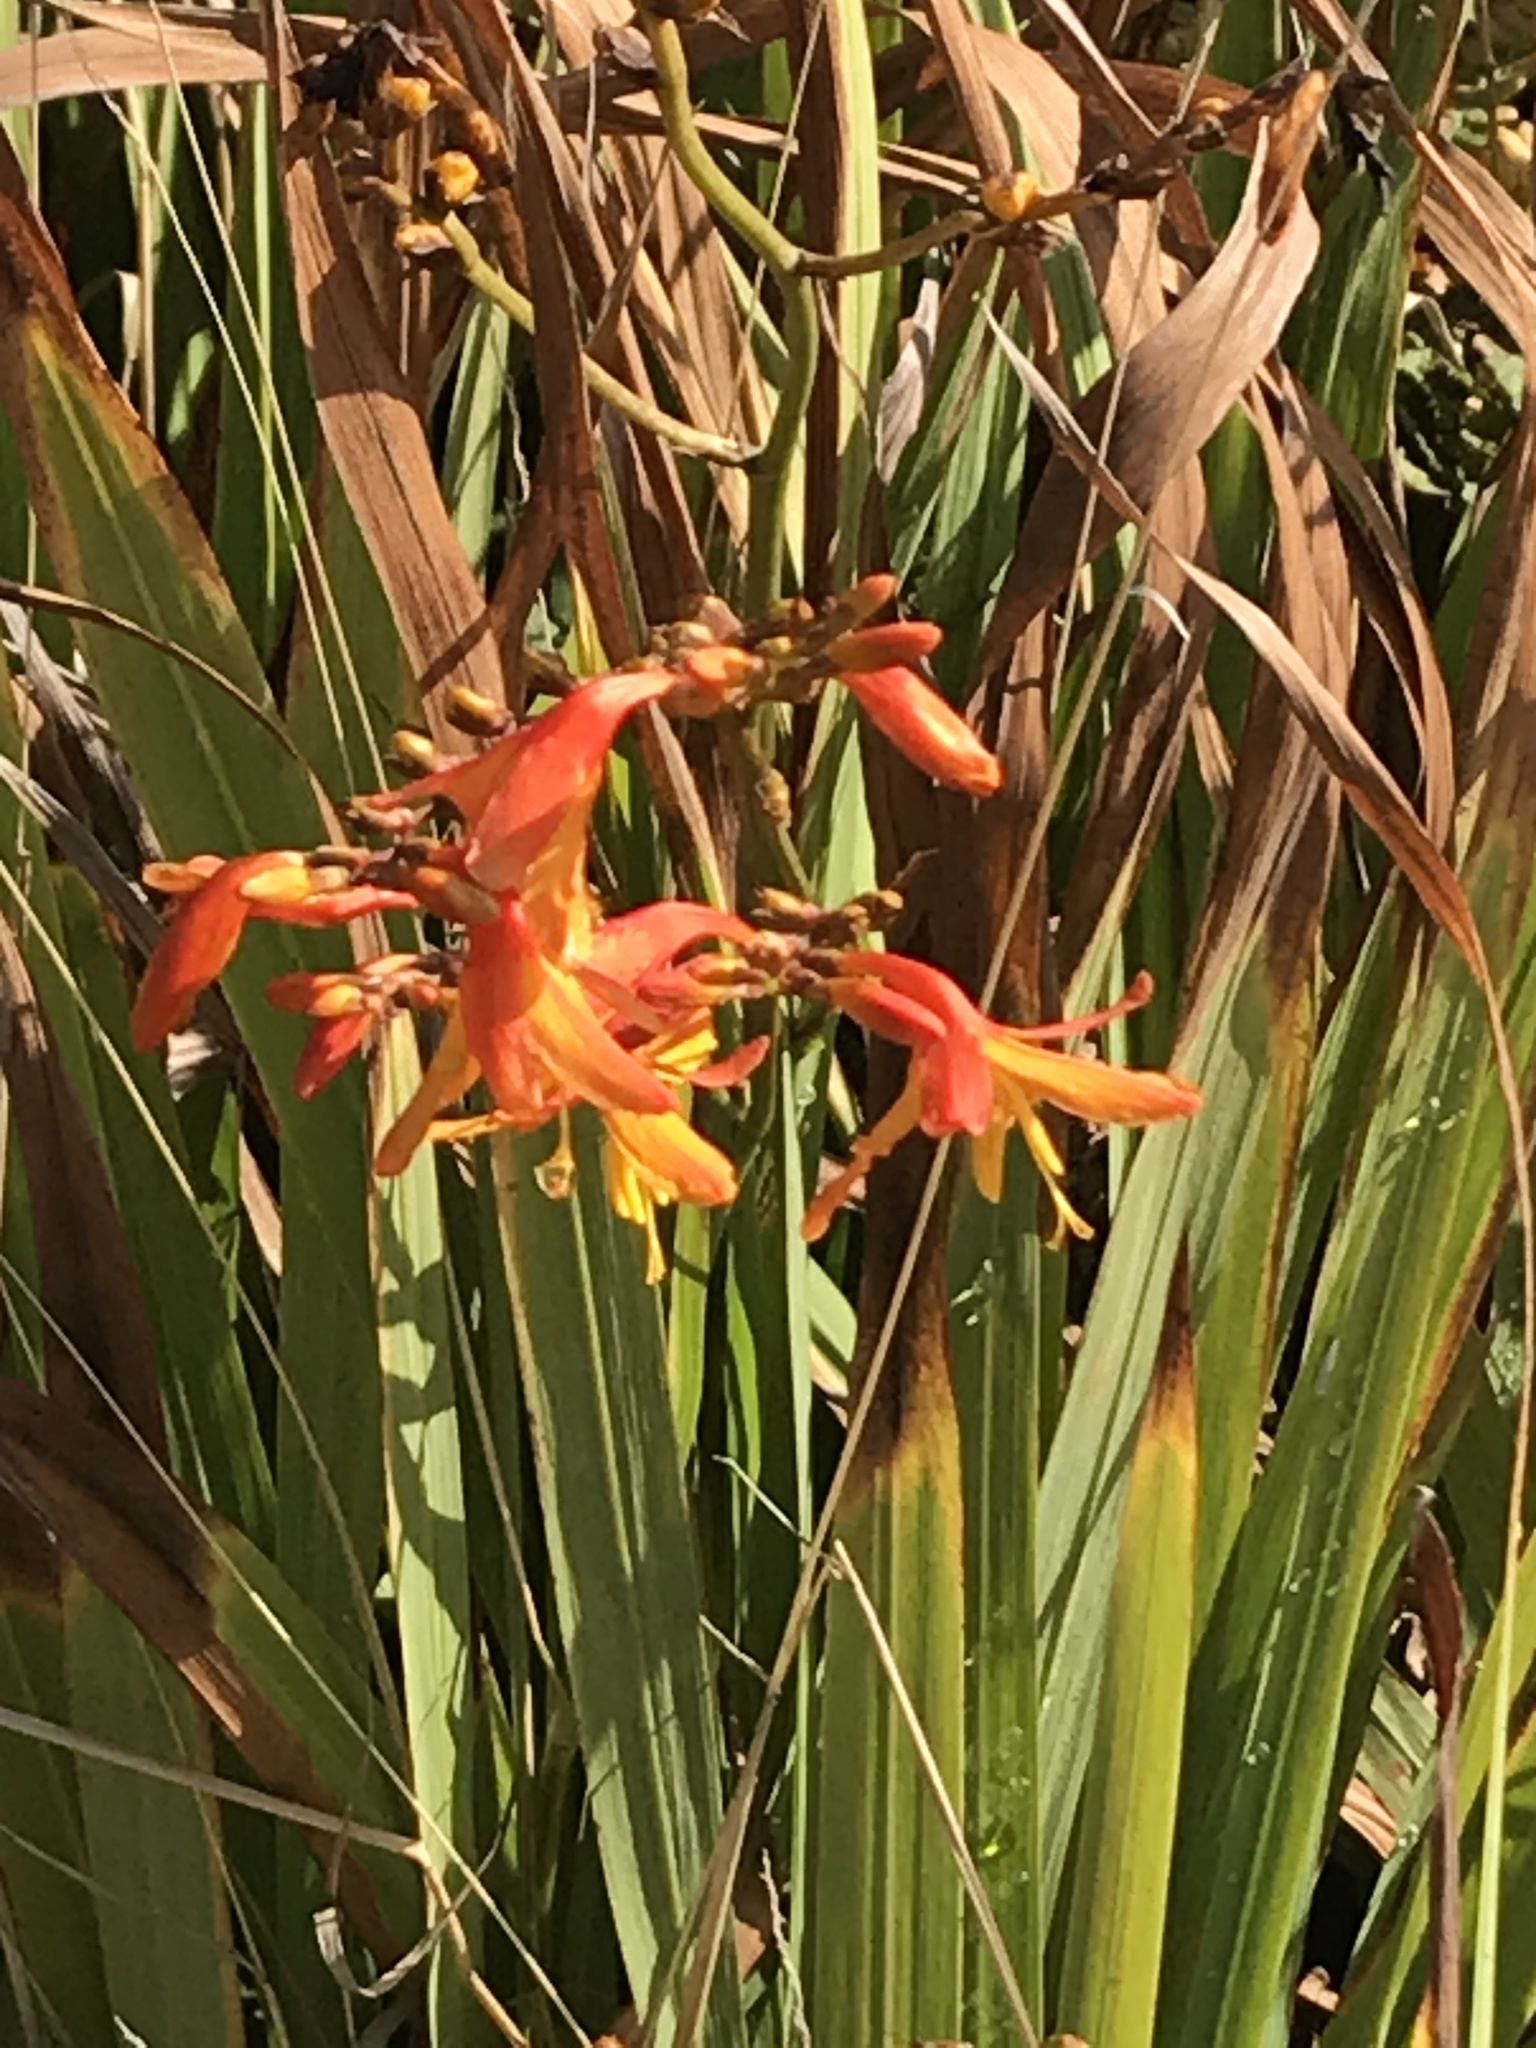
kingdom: Plantae
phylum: Tracheophyta
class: Liliopsida
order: Asparagales
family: Iridaceae
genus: Crocosmia
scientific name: Crocosmia crocosmiiflora
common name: Montbretia
